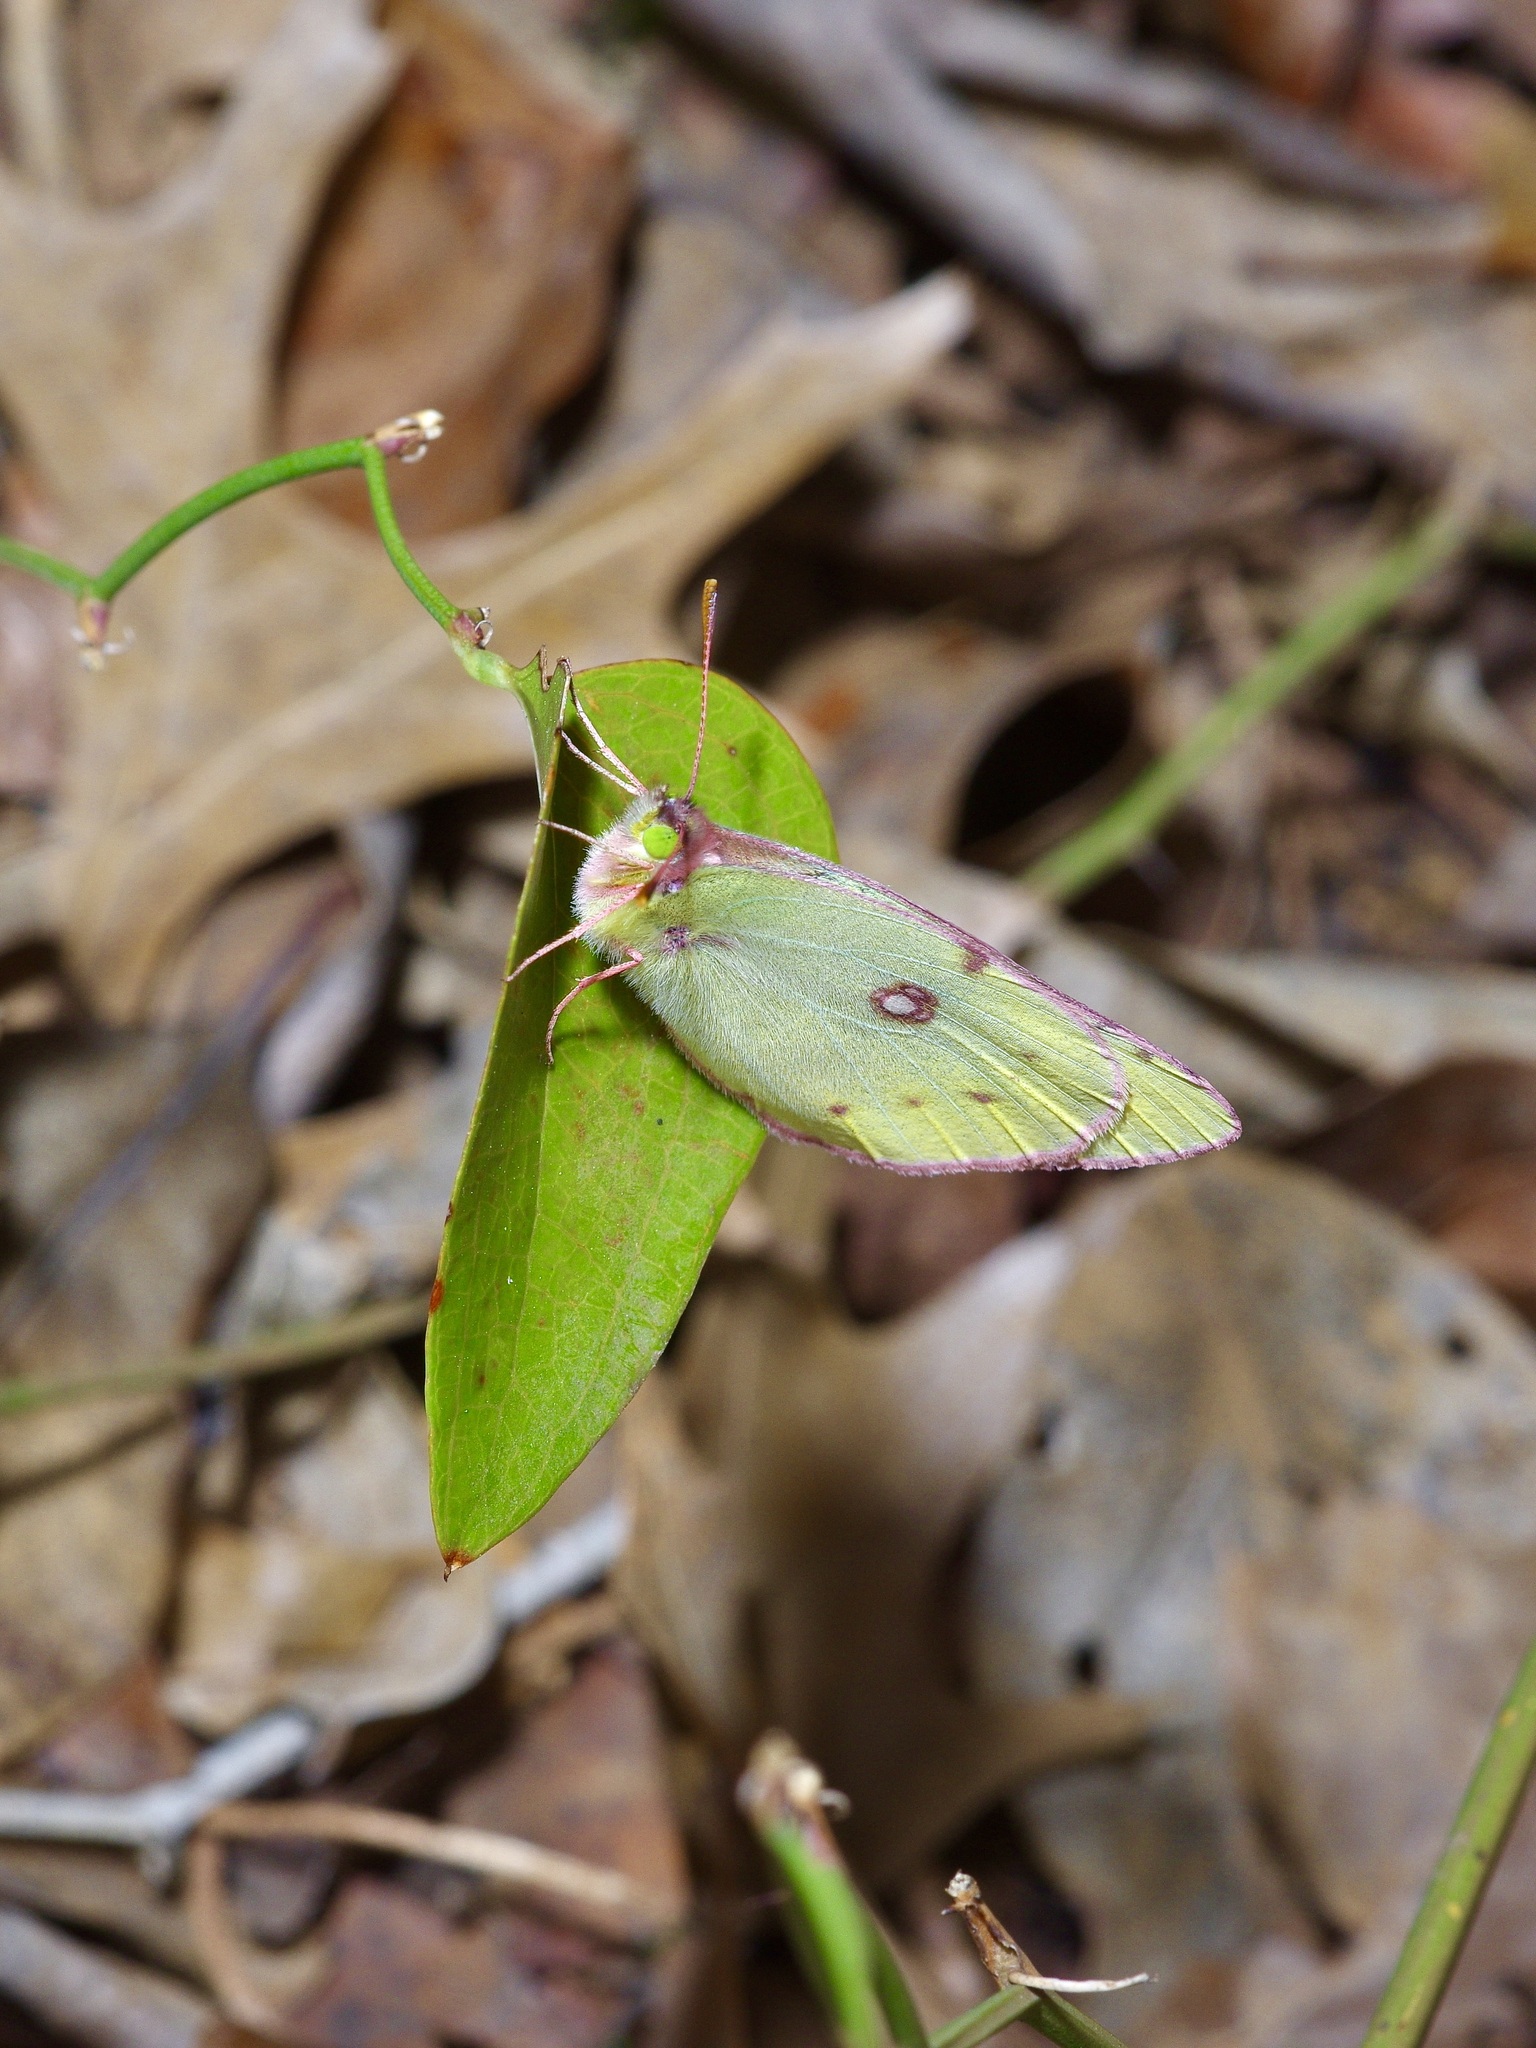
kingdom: Animalia
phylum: Arthropoda
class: Insecta
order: Lepidoptera
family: Pieridae
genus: Colias
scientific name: Colias eurytheme
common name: Alfalfa butterfly
